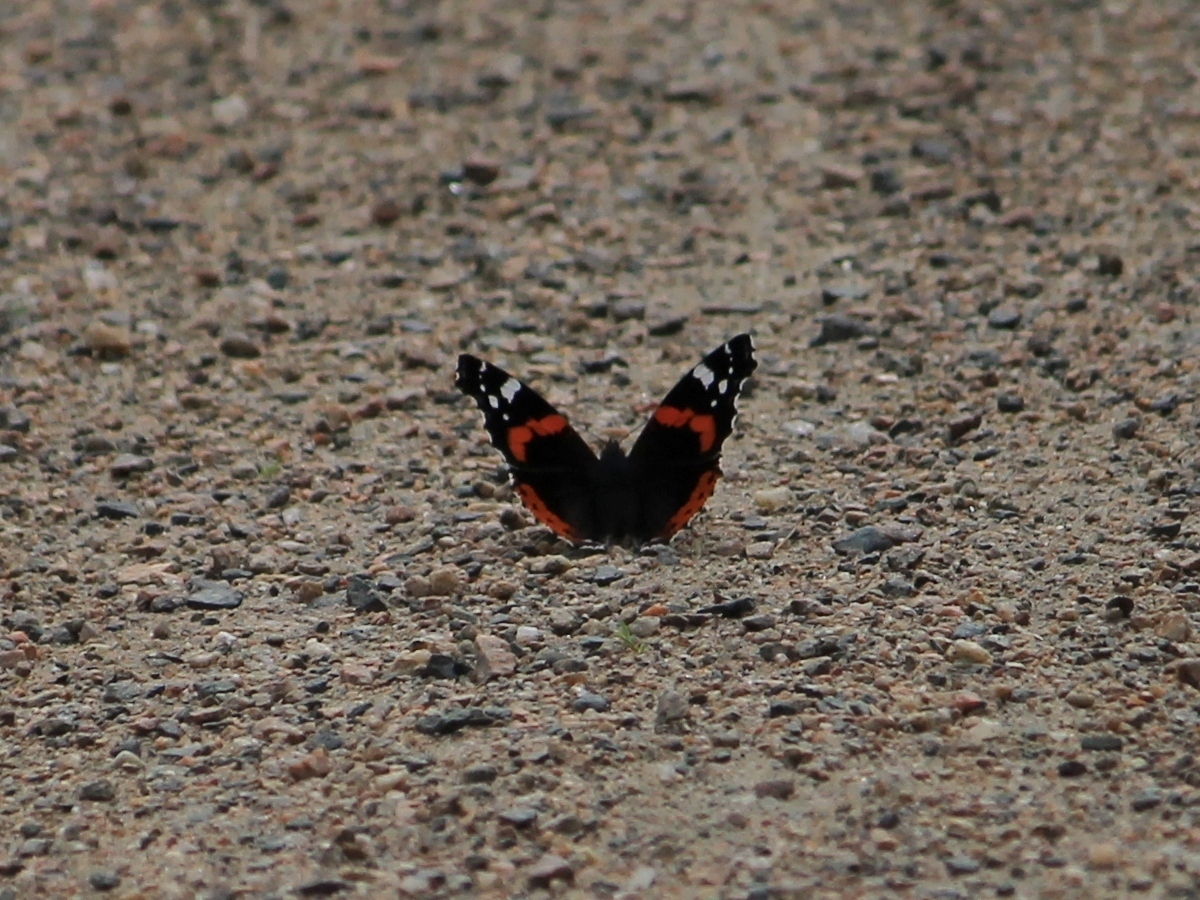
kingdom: Animalia
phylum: Arthropoda
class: Insecta
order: Lepidoptera
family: Nymphalidae
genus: Vanessa
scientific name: Vanessa atalanta
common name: Red admiral
